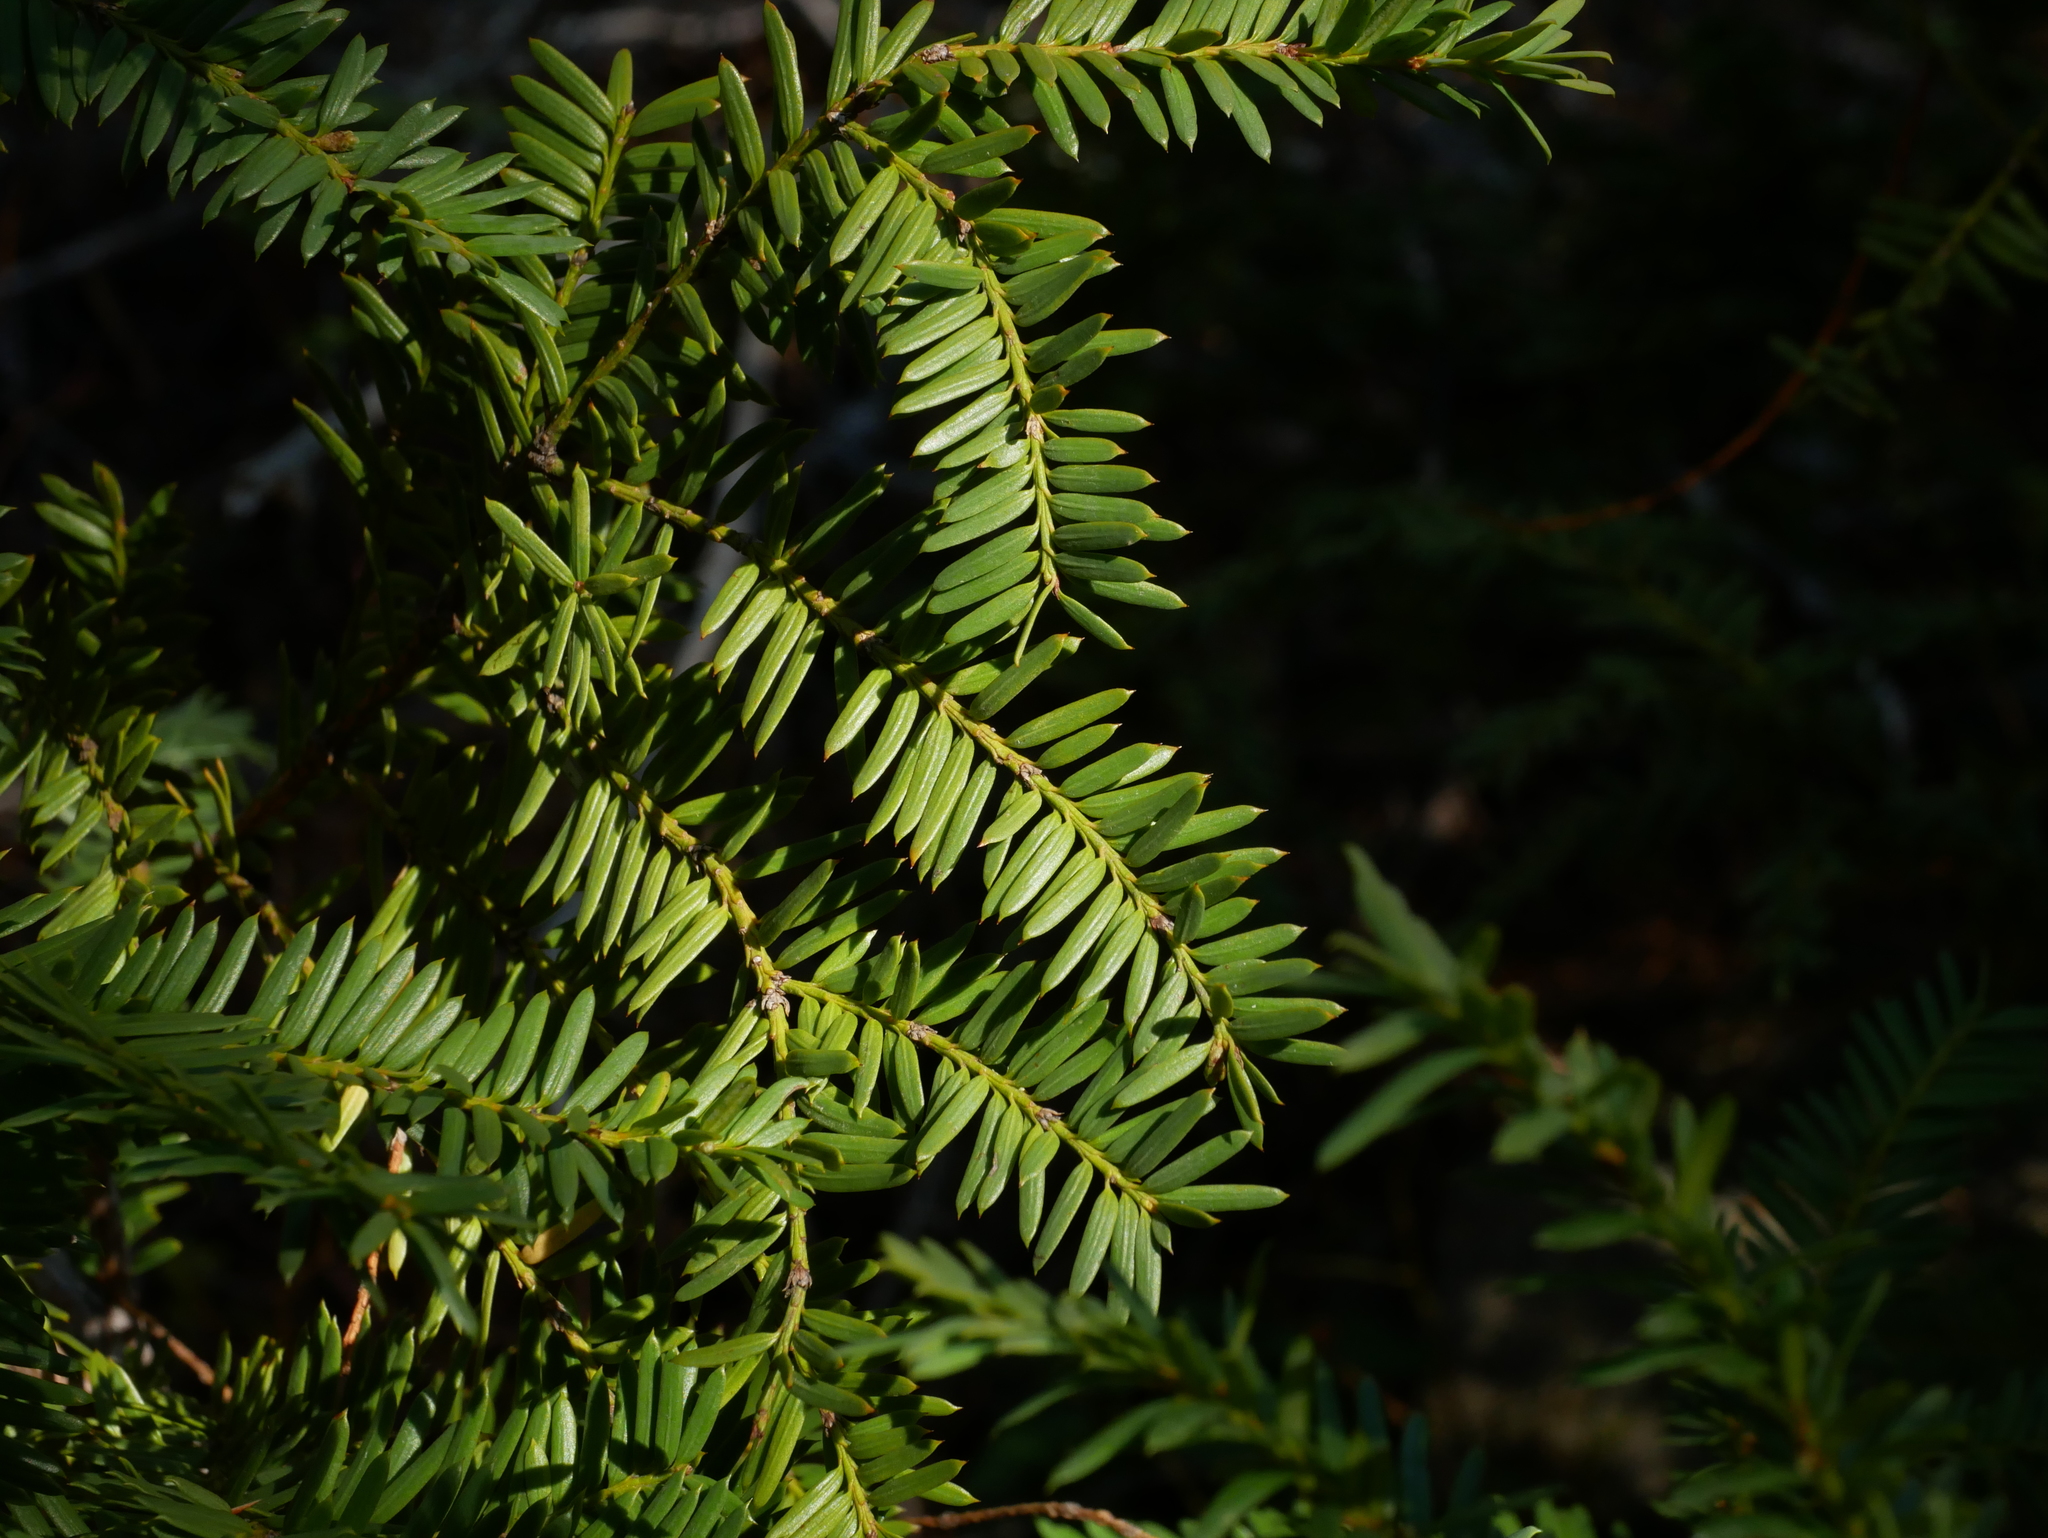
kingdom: Plantae
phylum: Tracheophyta
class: Pinopsida
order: Pinales
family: Taxaceae
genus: Taxus
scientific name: Taxus brevifolia
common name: Pacific yew
